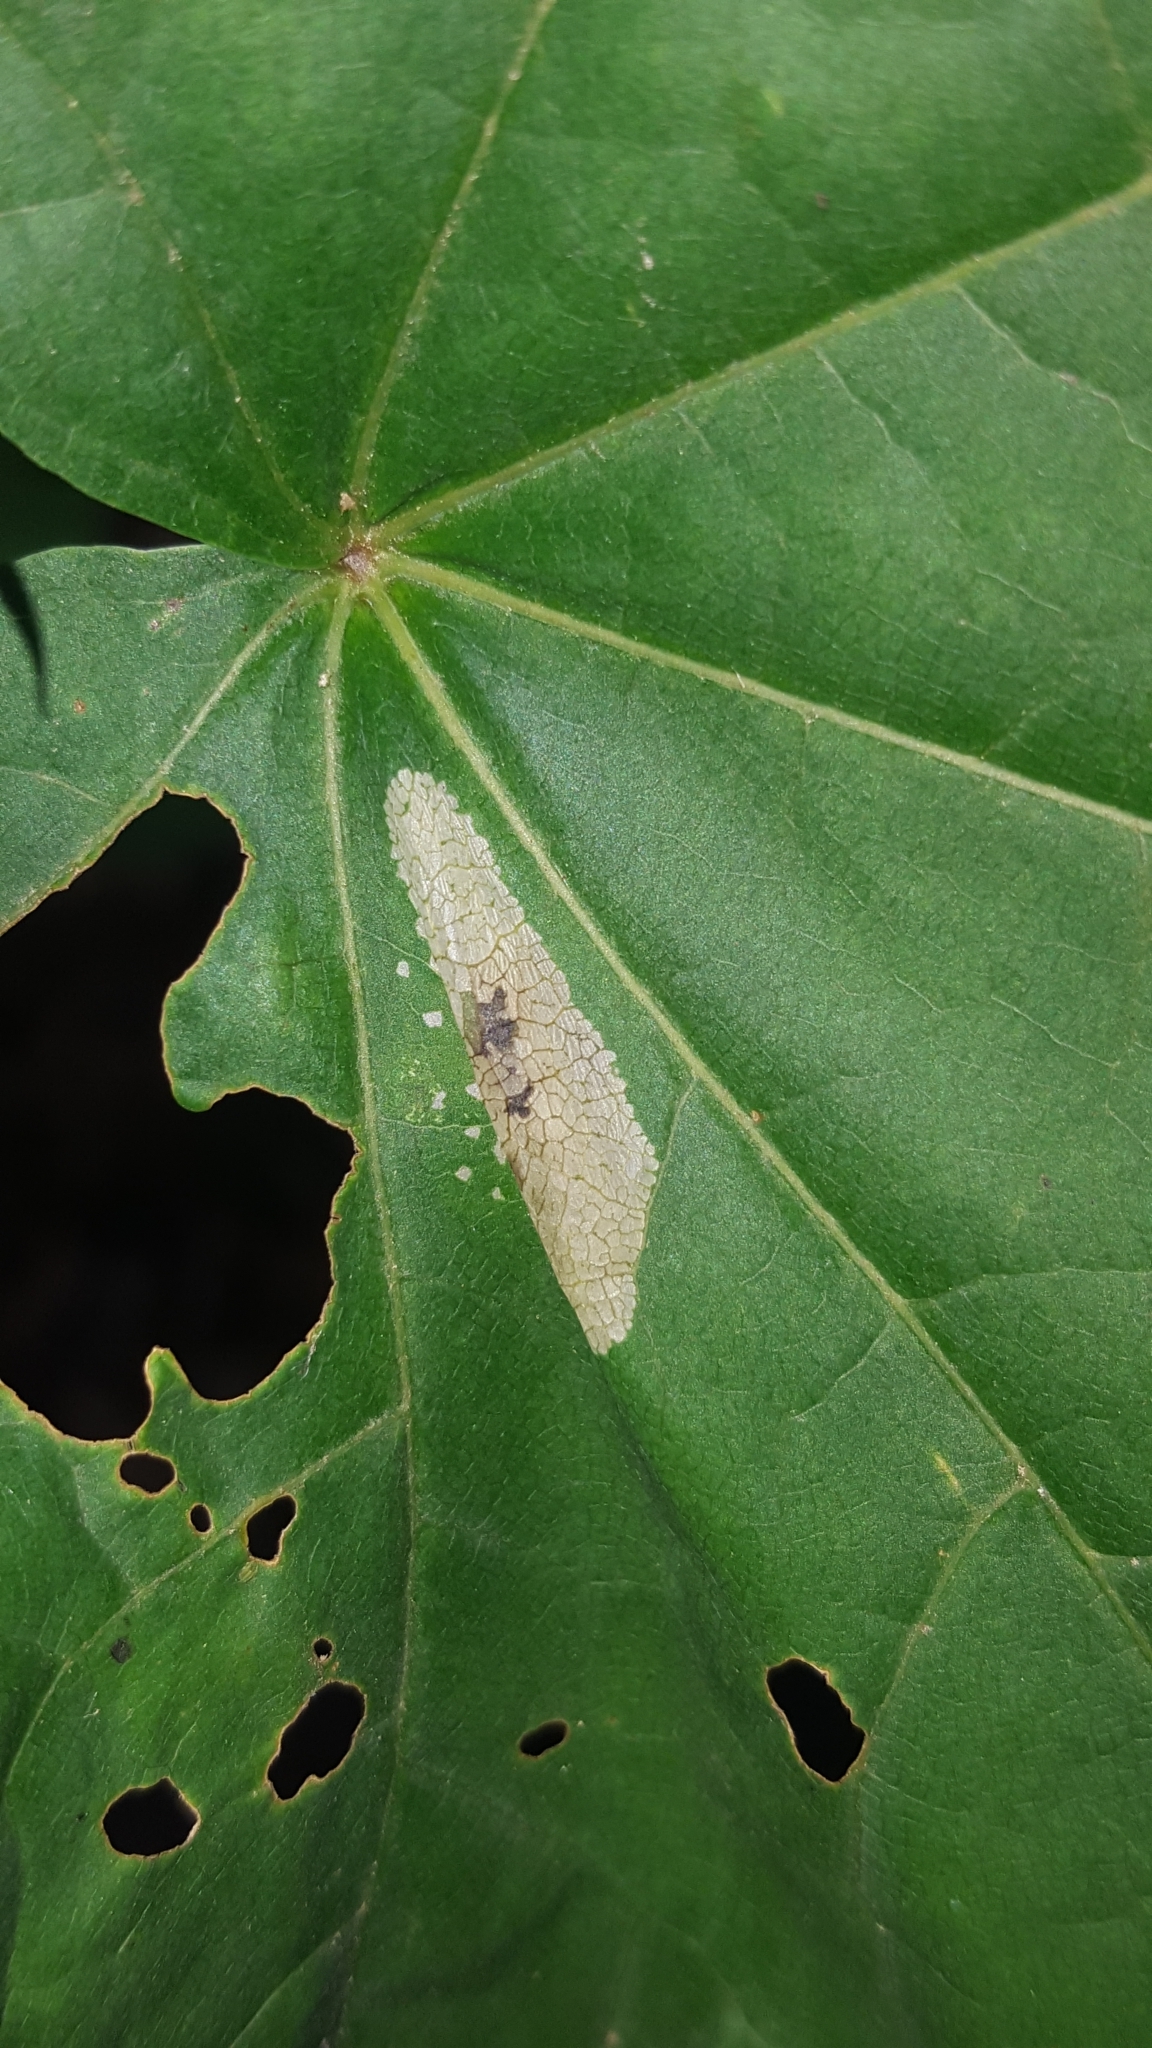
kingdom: Animalia
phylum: Arthropoda
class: Insecta
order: Lepidoptera
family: Gracillariidae
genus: Phyllonorycter
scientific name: Phyllonorycter joannisi
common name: White-bodied midget
